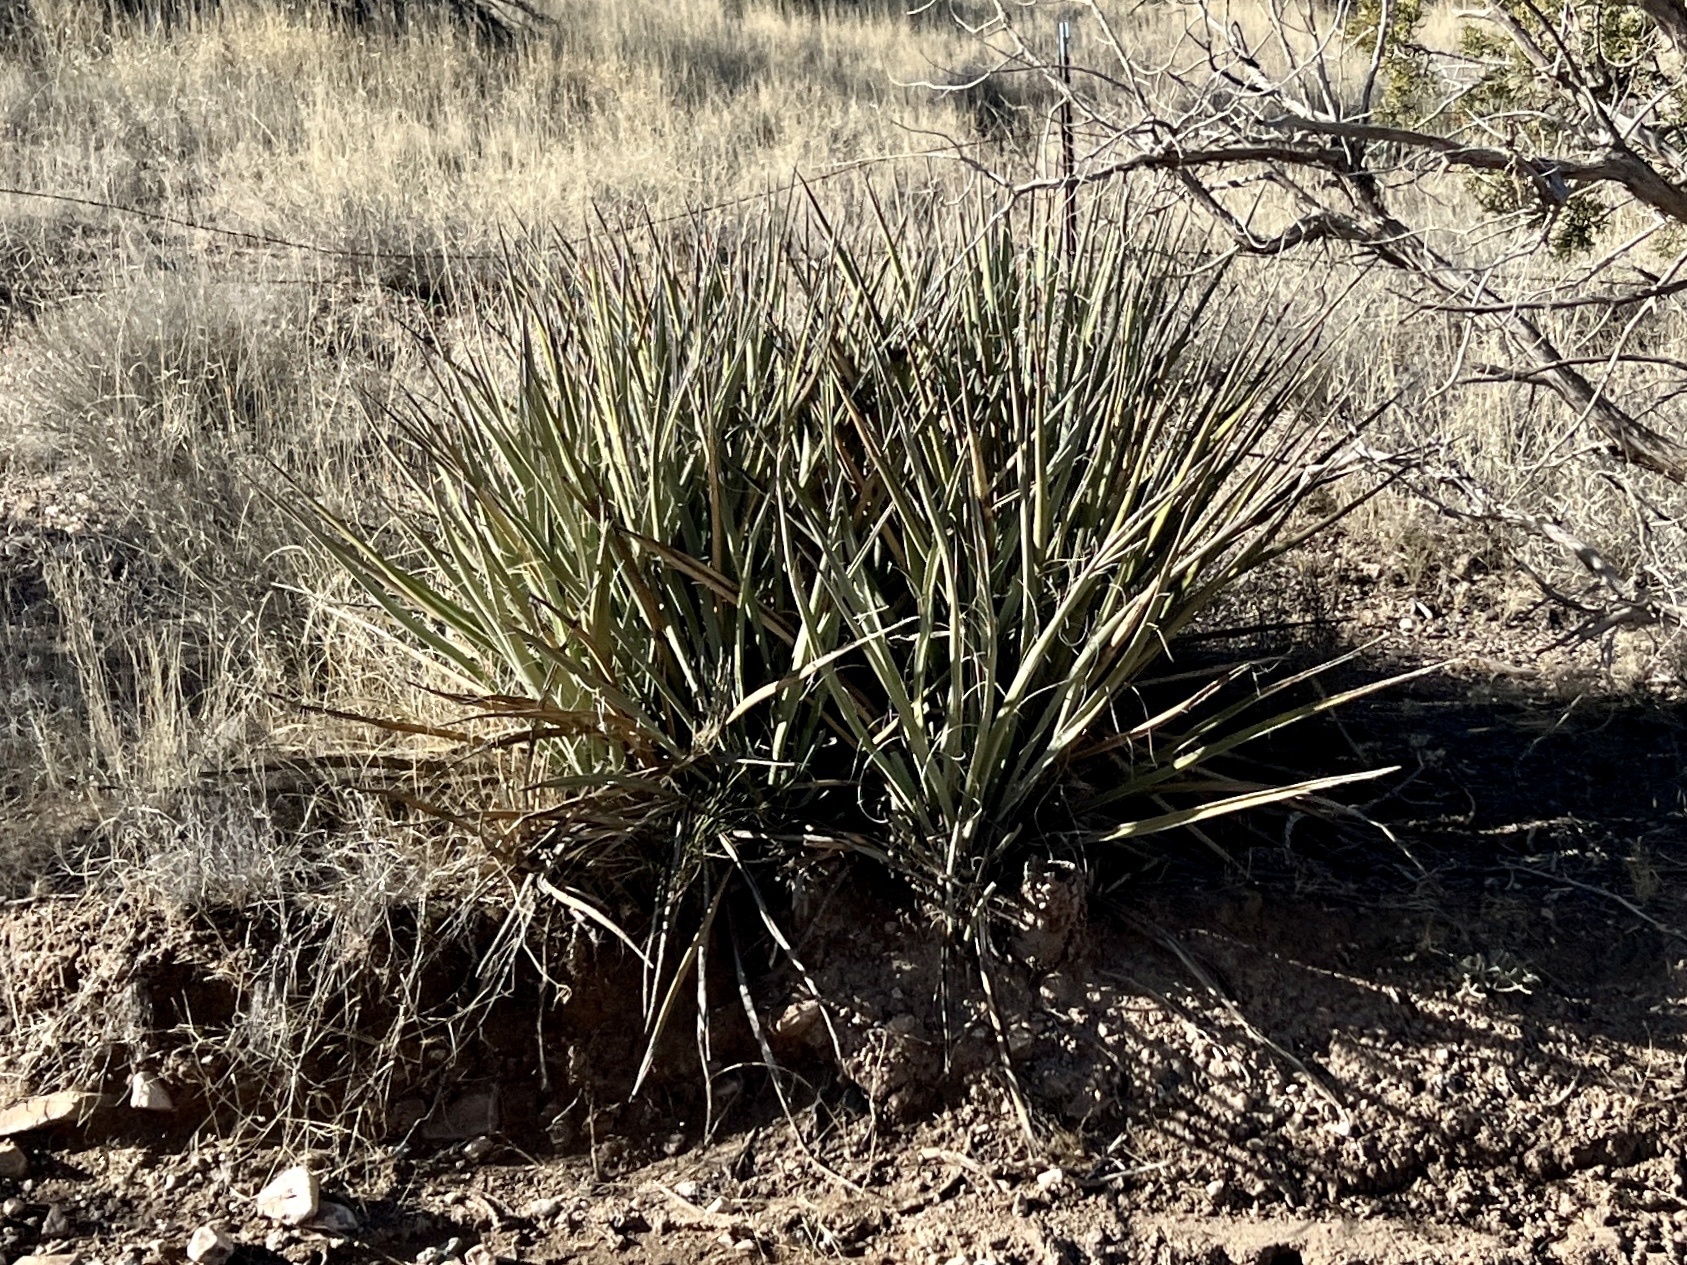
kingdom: Plantae
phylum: Tracheophyta
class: Liliopsida
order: Asparagales
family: Asparagaceae
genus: Yucca
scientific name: Yucca baccata
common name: Banana yucca
